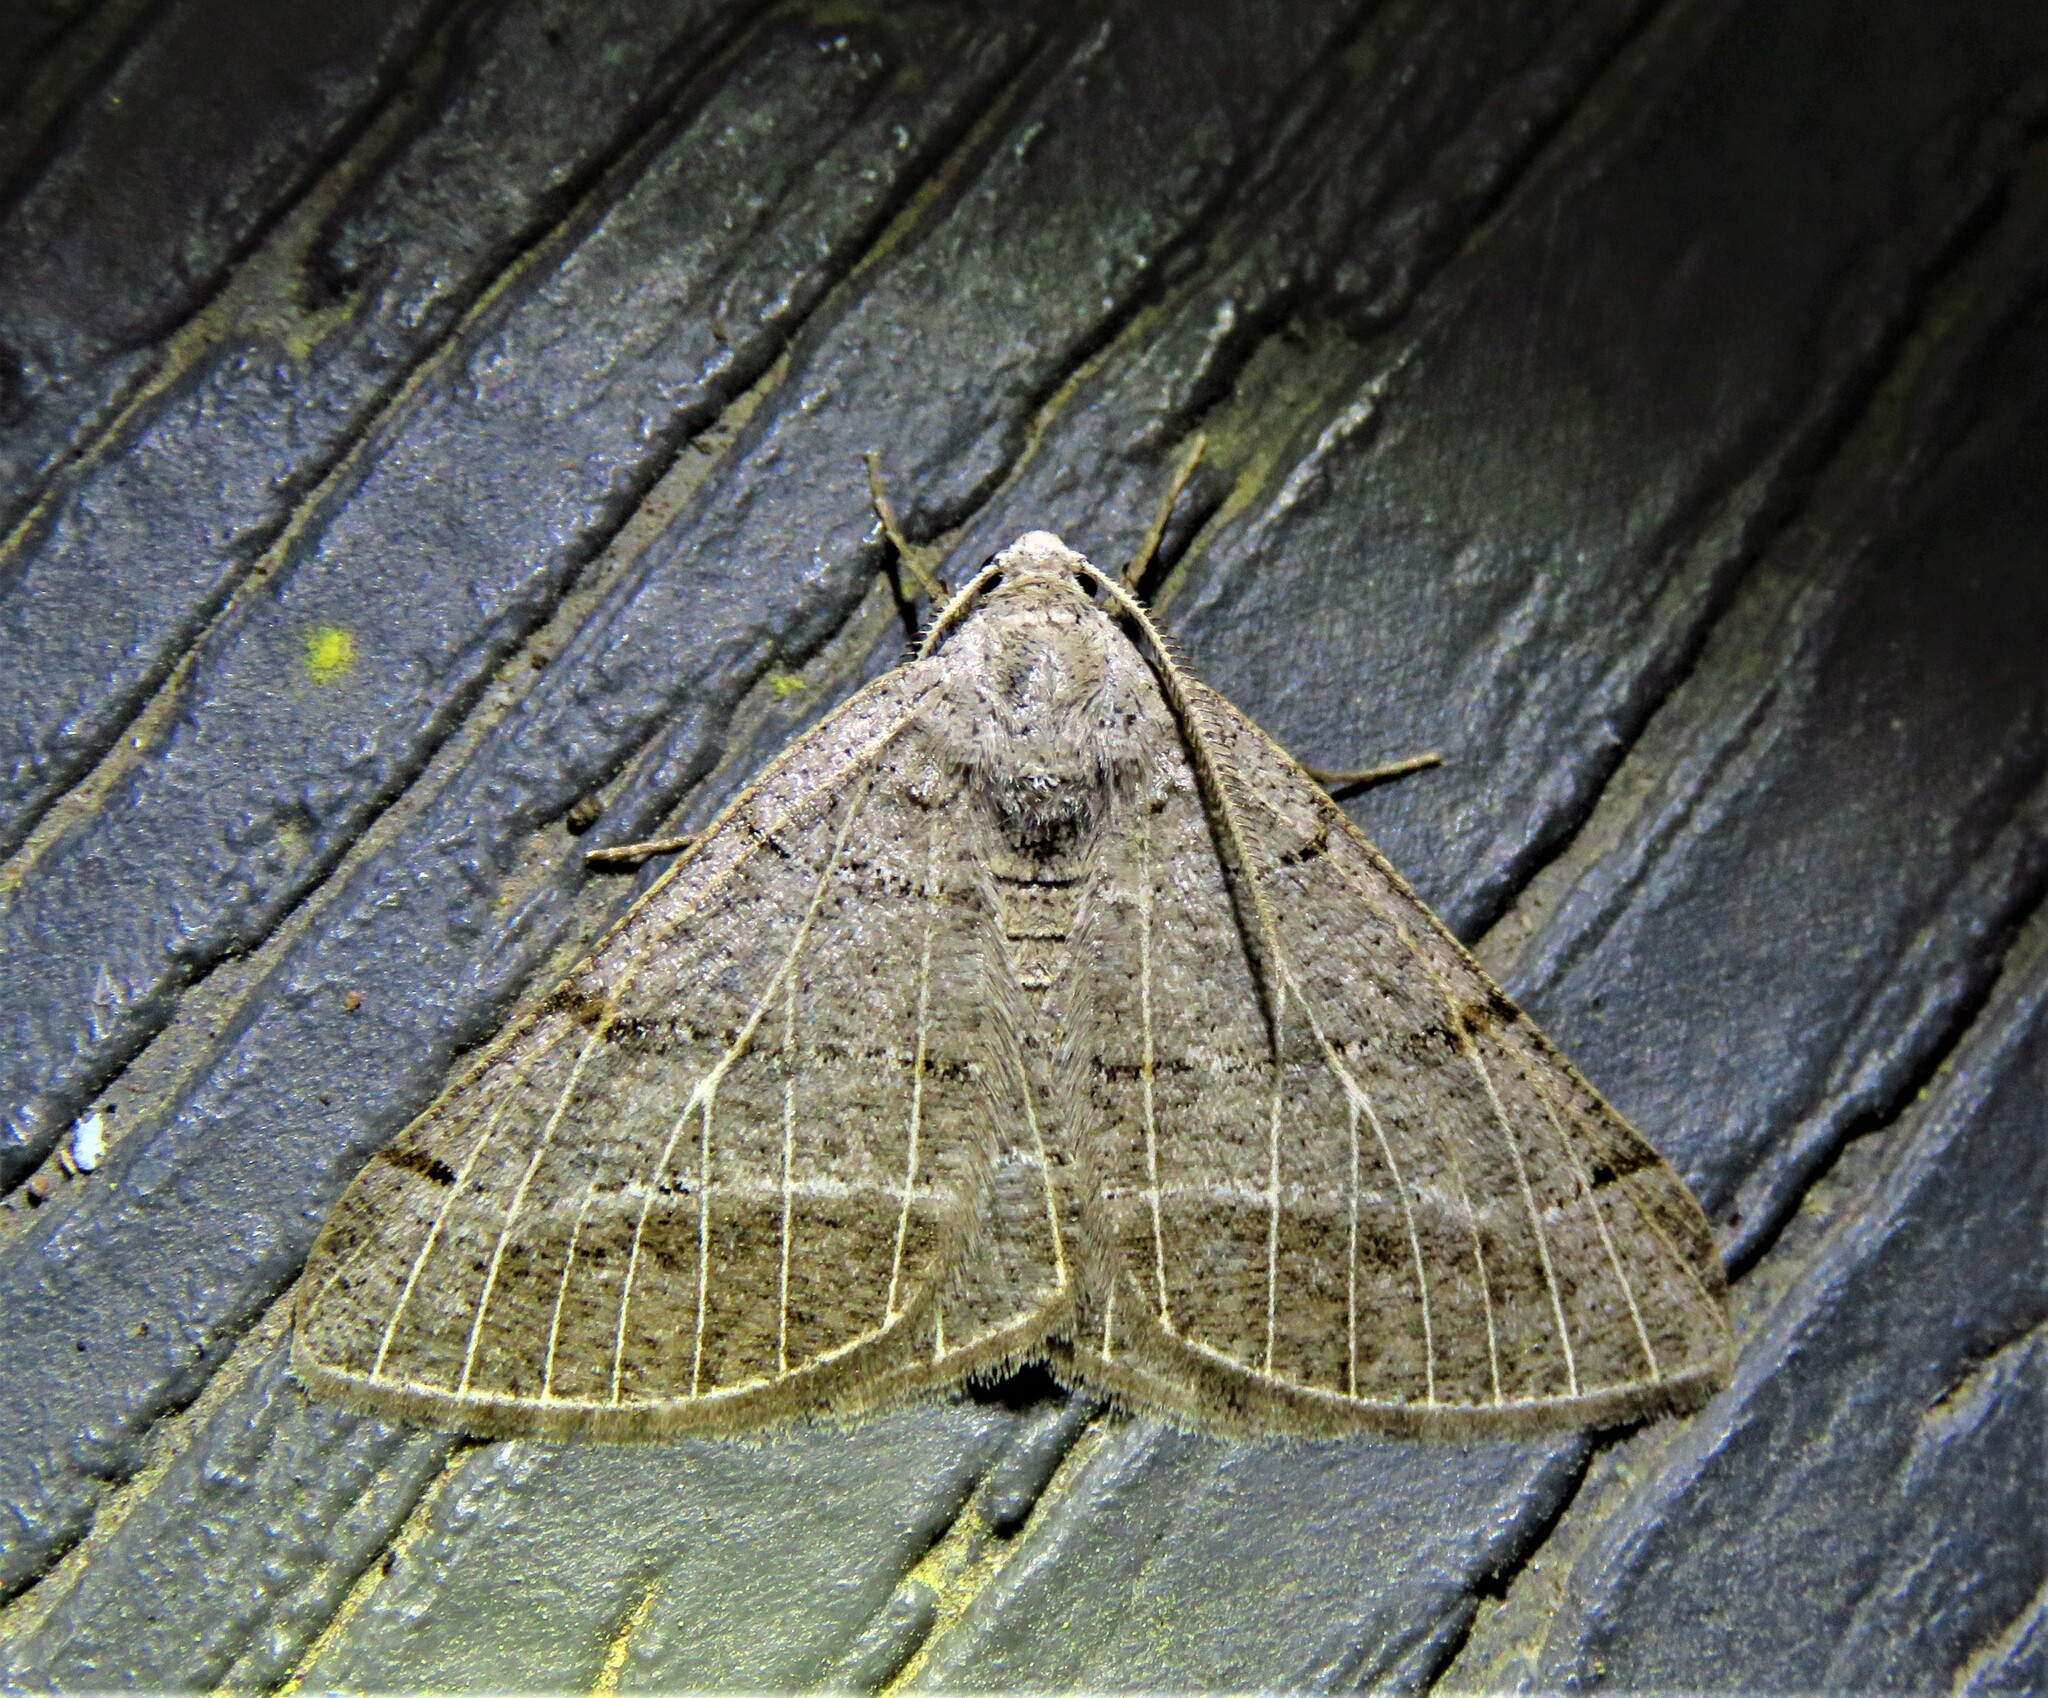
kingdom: Animalia
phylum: Arthropoda
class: Insecta
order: Lepidoptera
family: Geometridae
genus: Isturgia
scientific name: Isturgia dislocaria
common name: Pale-viened enconista
